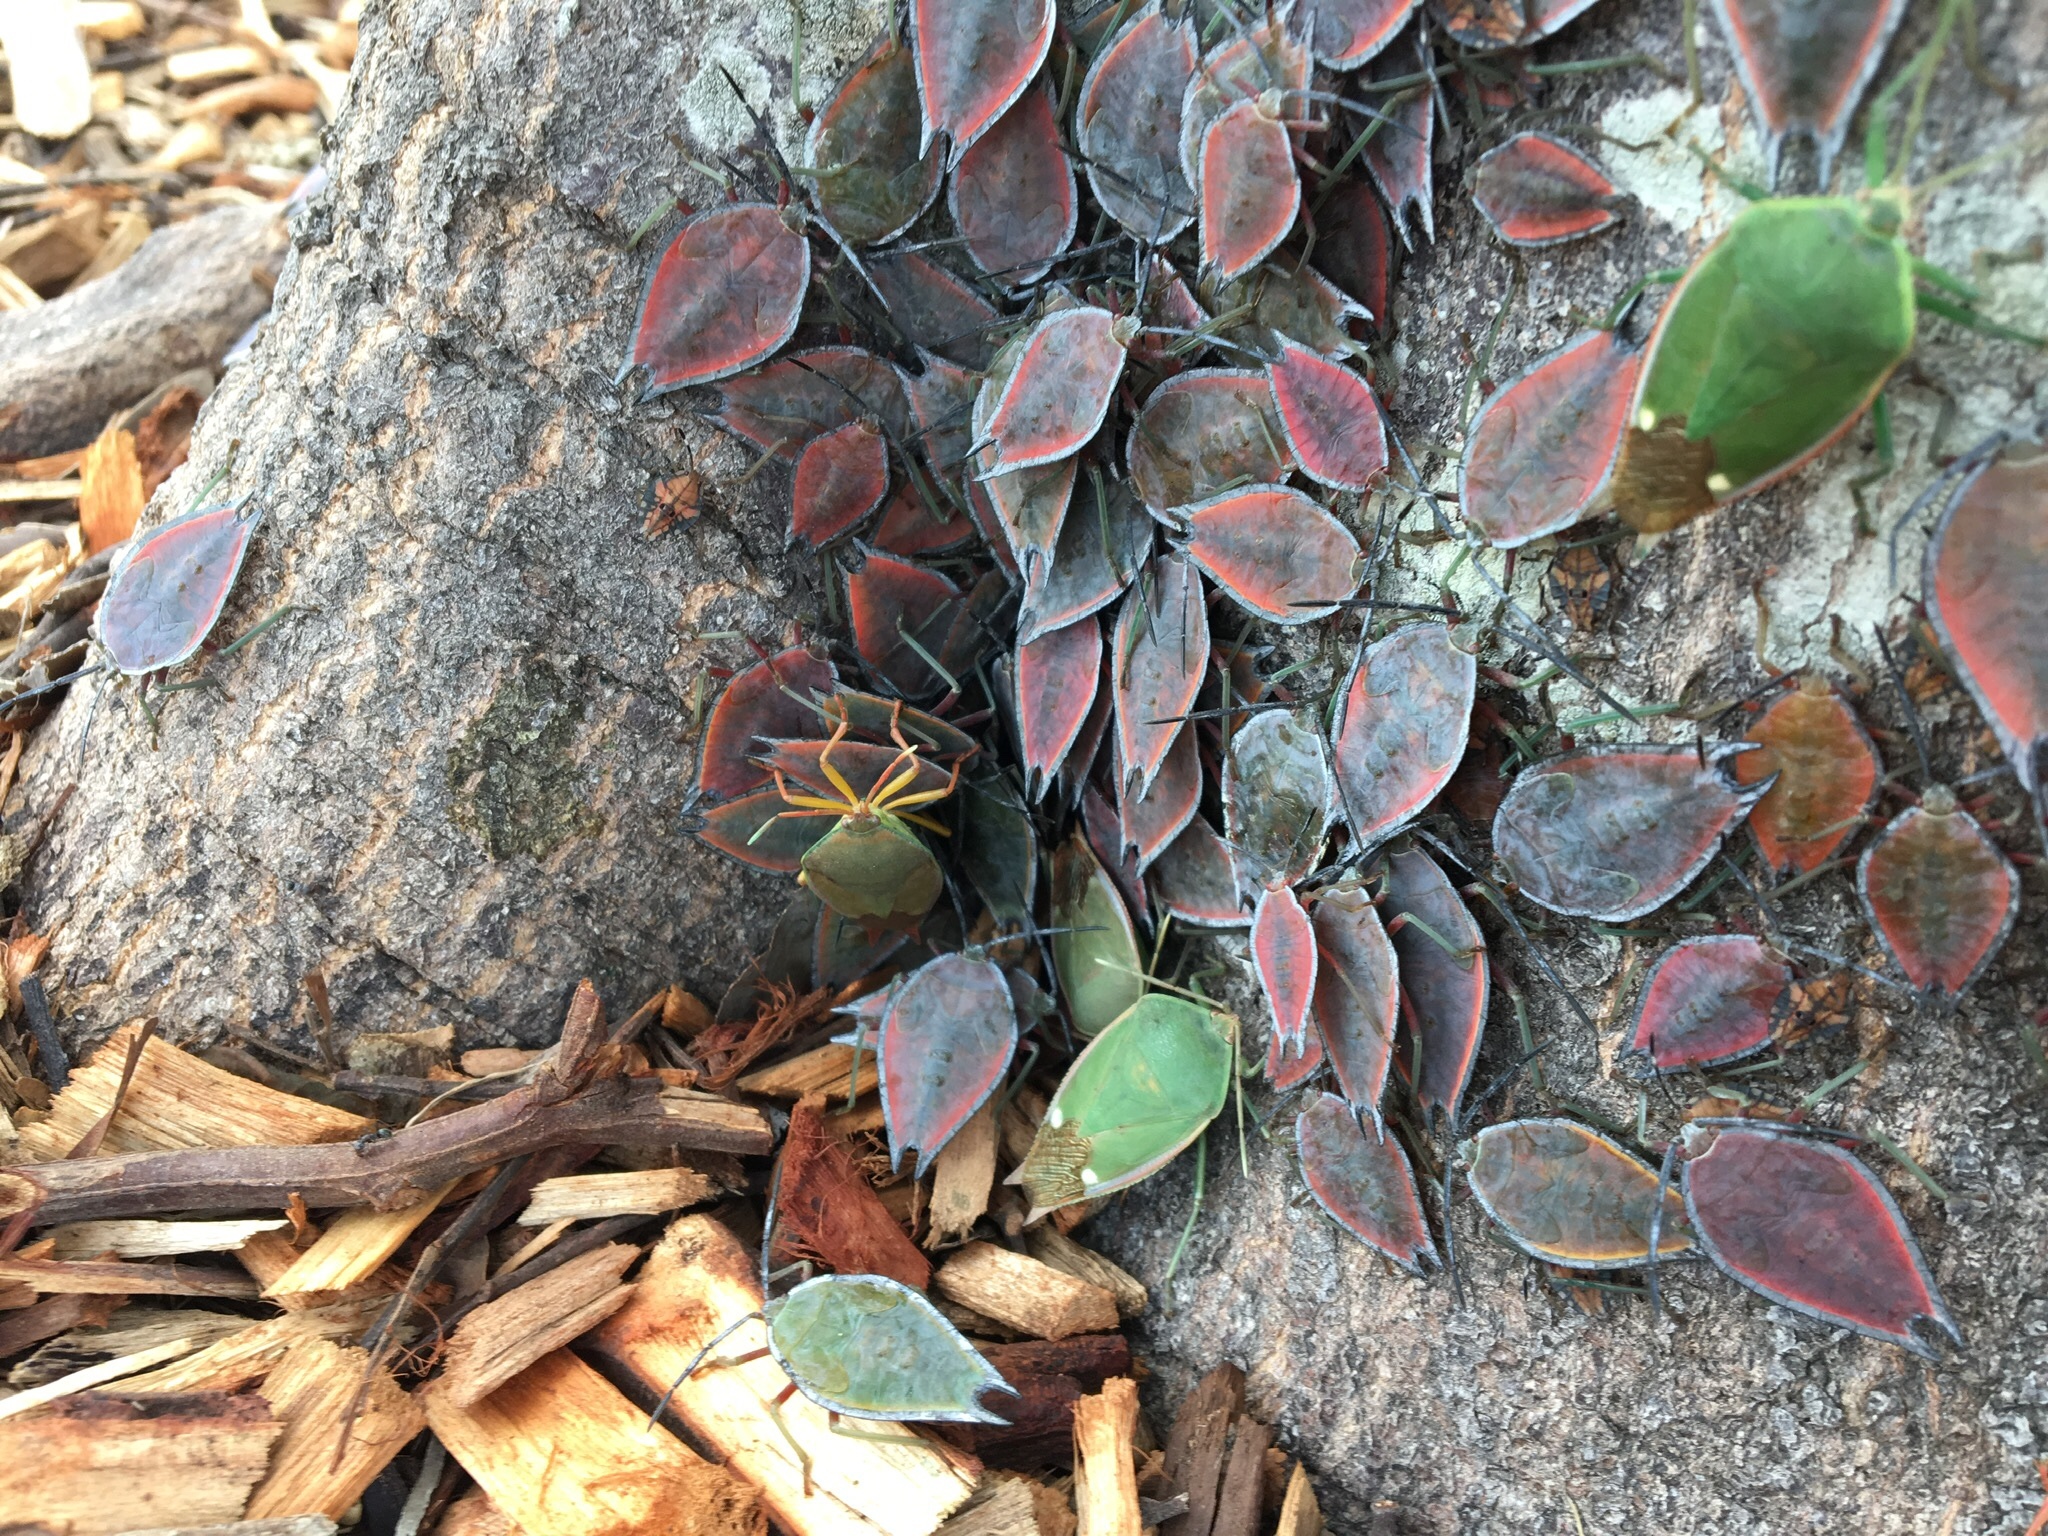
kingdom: Animalia
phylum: Arthropoda
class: Insecta
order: Hemiptera
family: Tessaratomidae
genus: Lyramorpha
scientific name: Lyramorpha rosea
